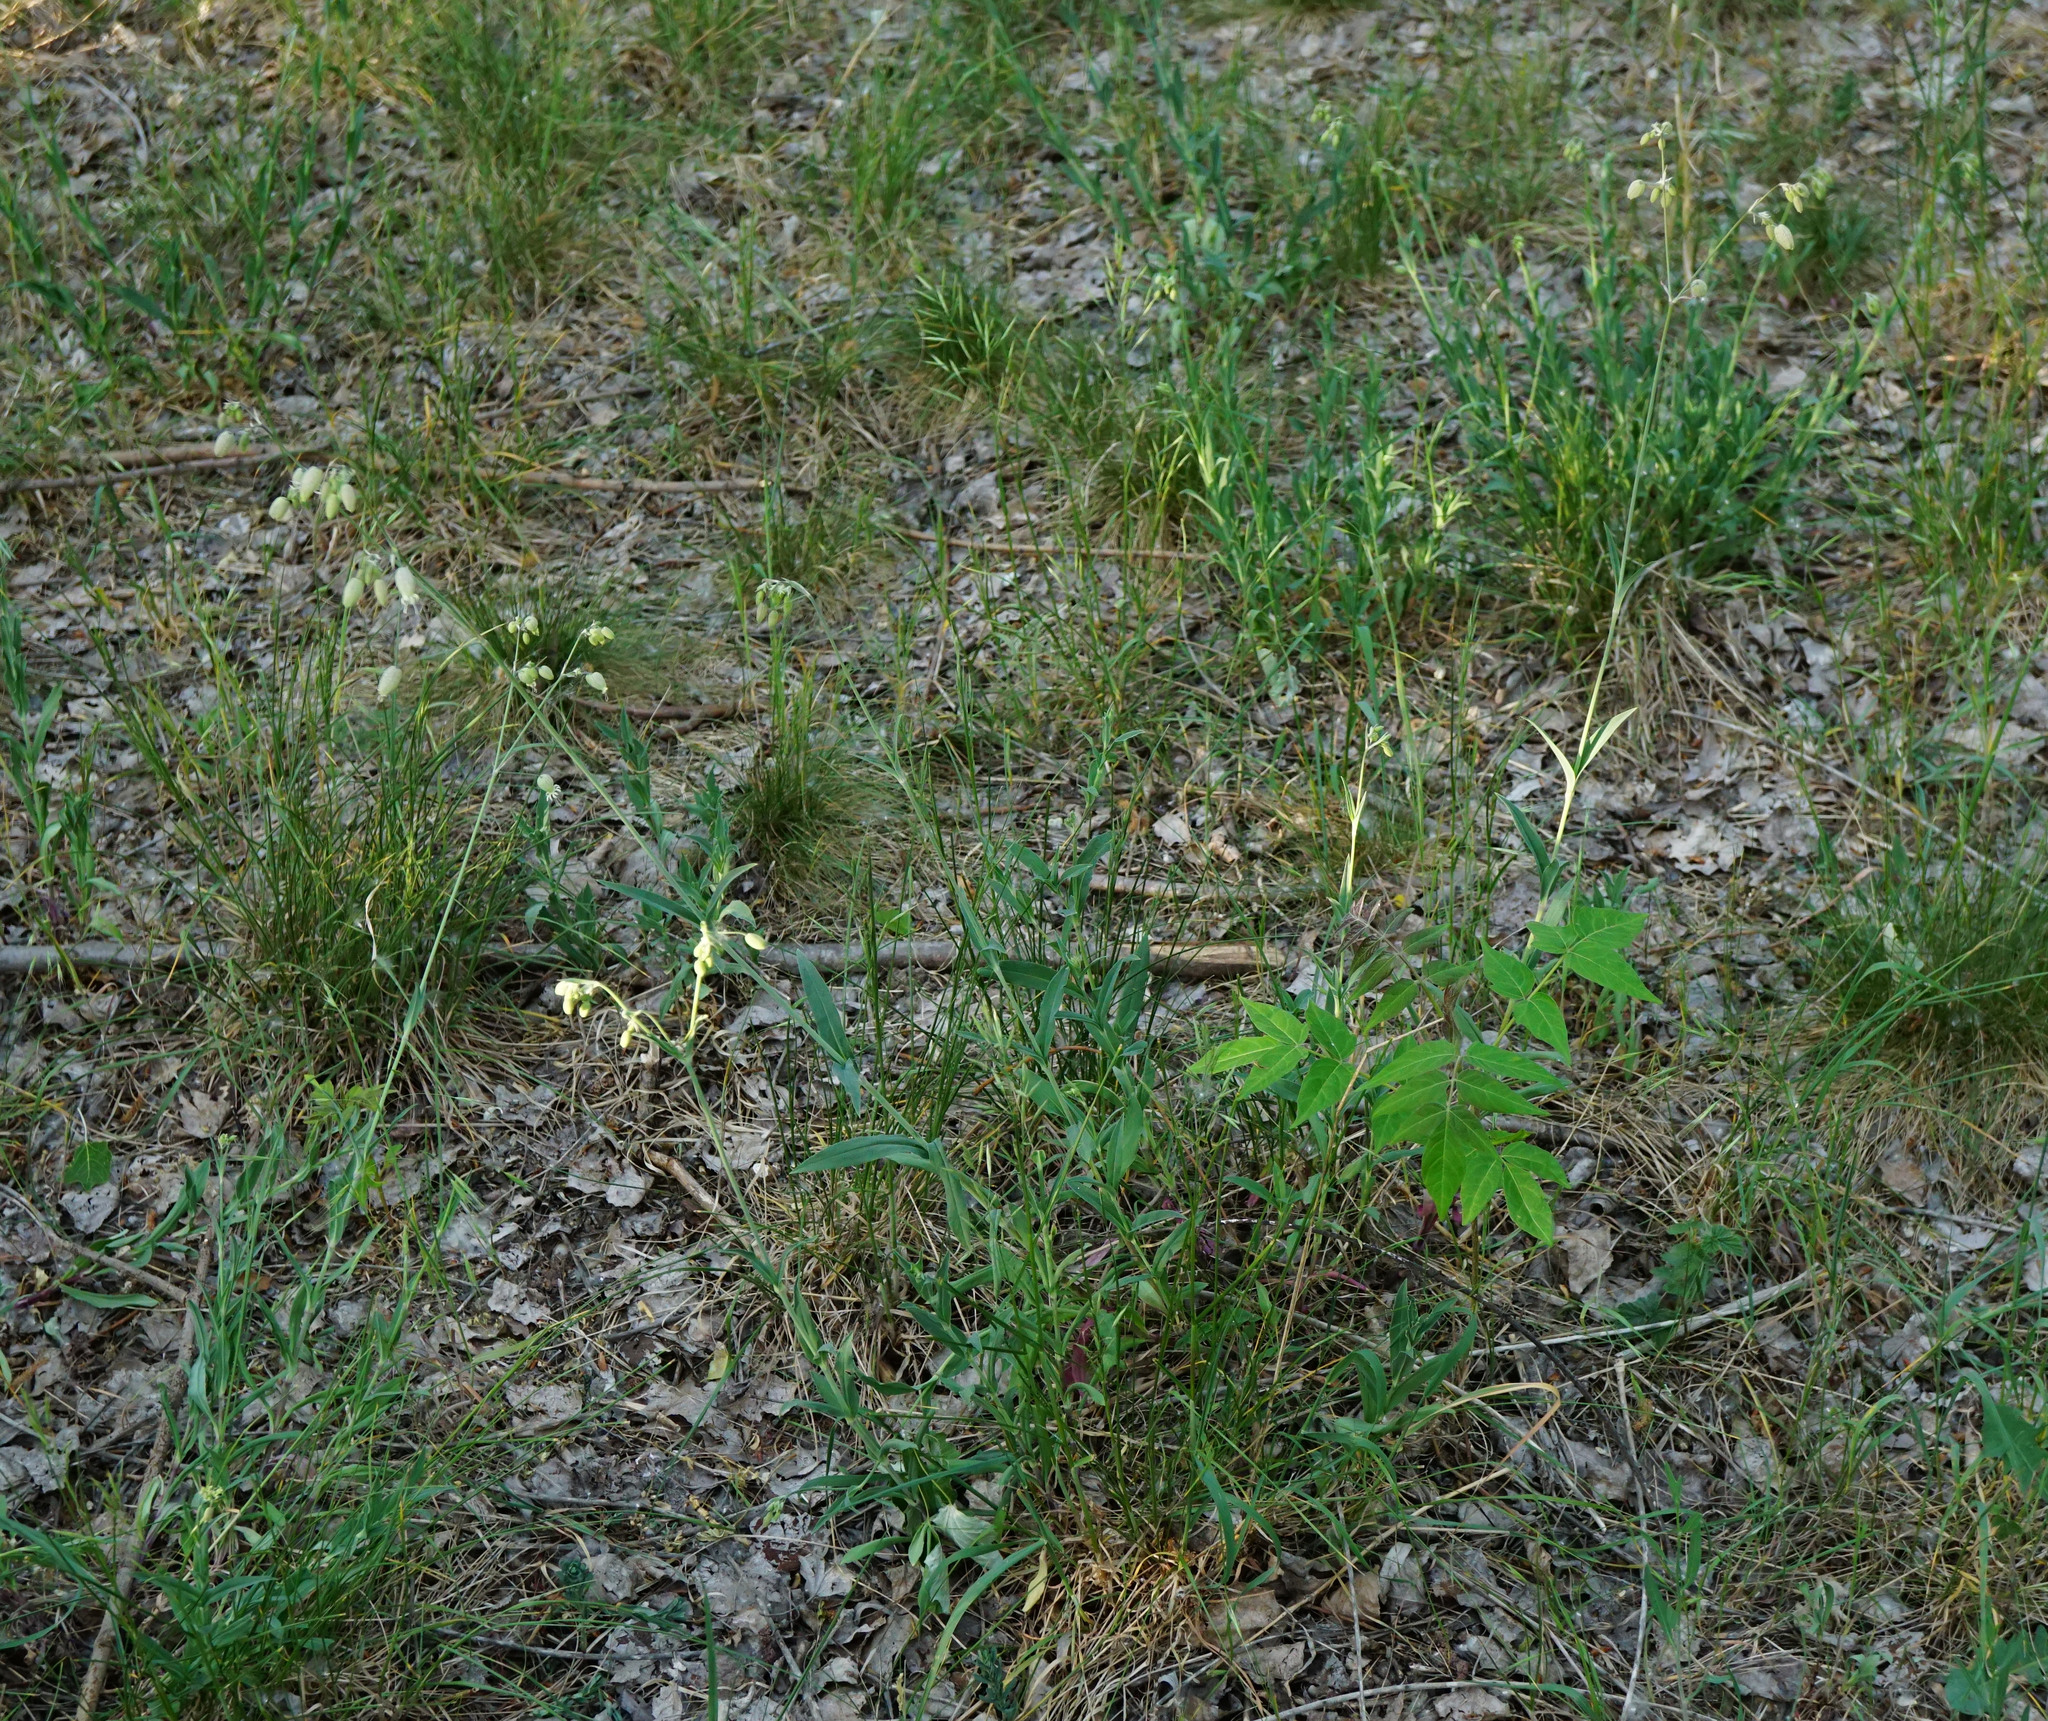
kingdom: Plantae
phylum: Tracheophyta
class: Magnoliopsida
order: Caryophyllales
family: Caryophyllaceae
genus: Silene
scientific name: Silene vulgaris
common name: Bladder campion
